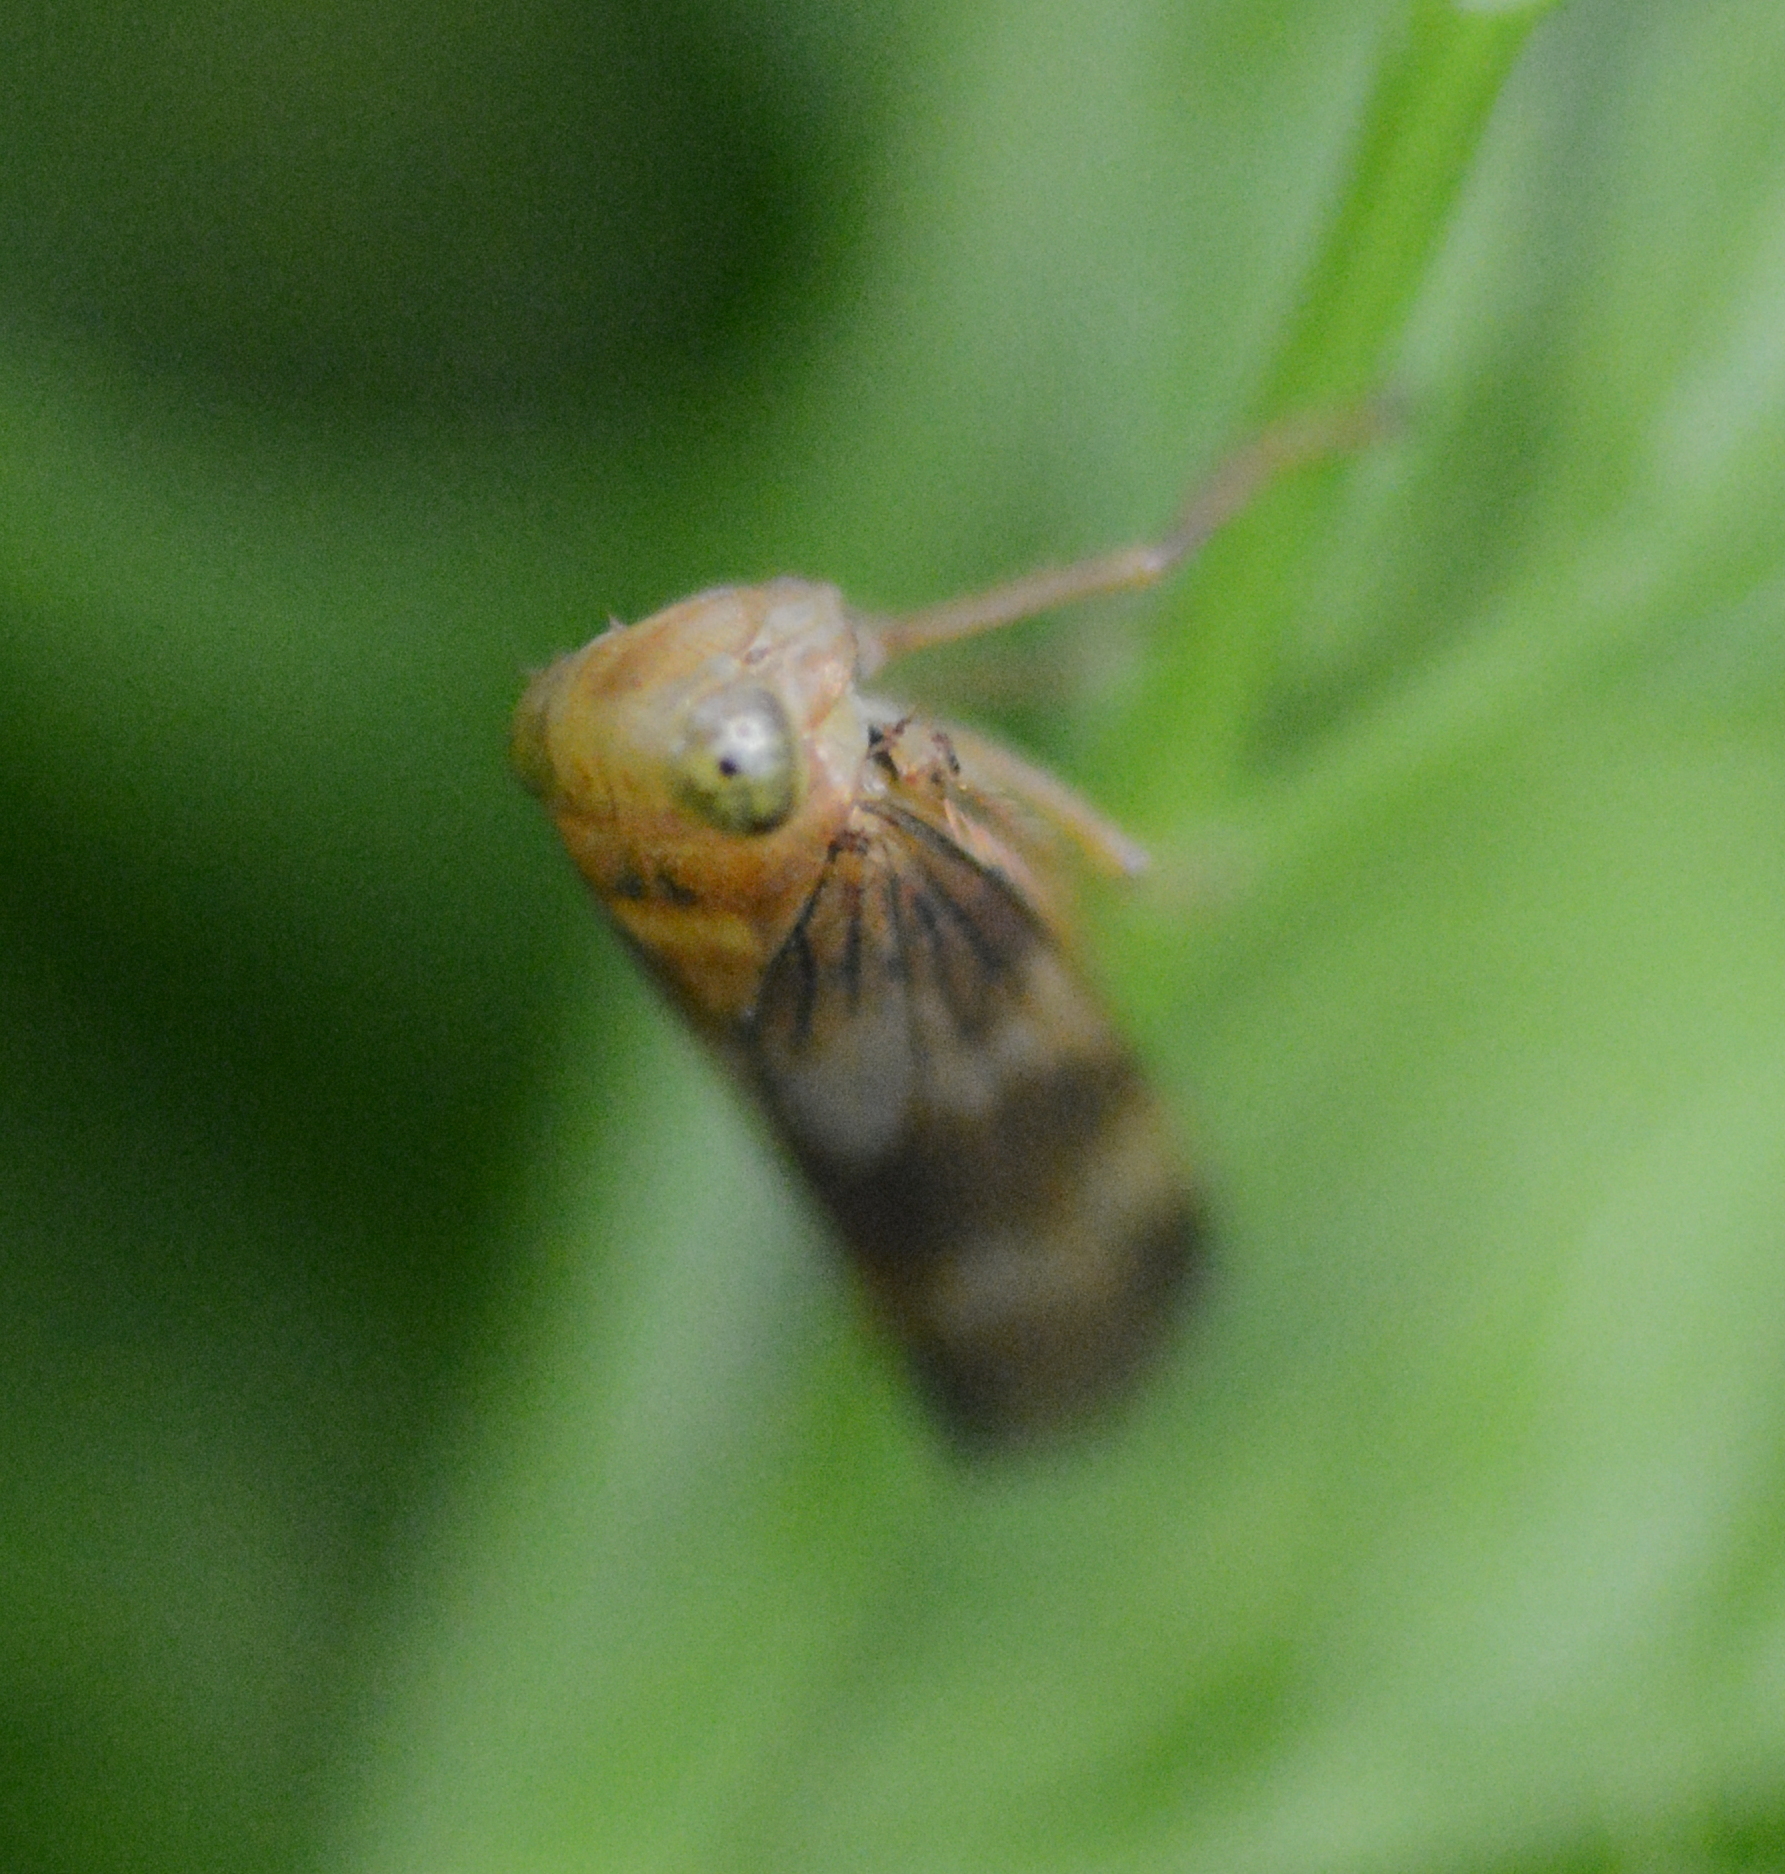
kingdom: Animalia
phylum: Arthropoda
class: Insecta
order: Hemiptera
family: Cicadellidae
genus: Jikradia
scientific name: Jikradia olitoria
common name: Coppery leafhopper
